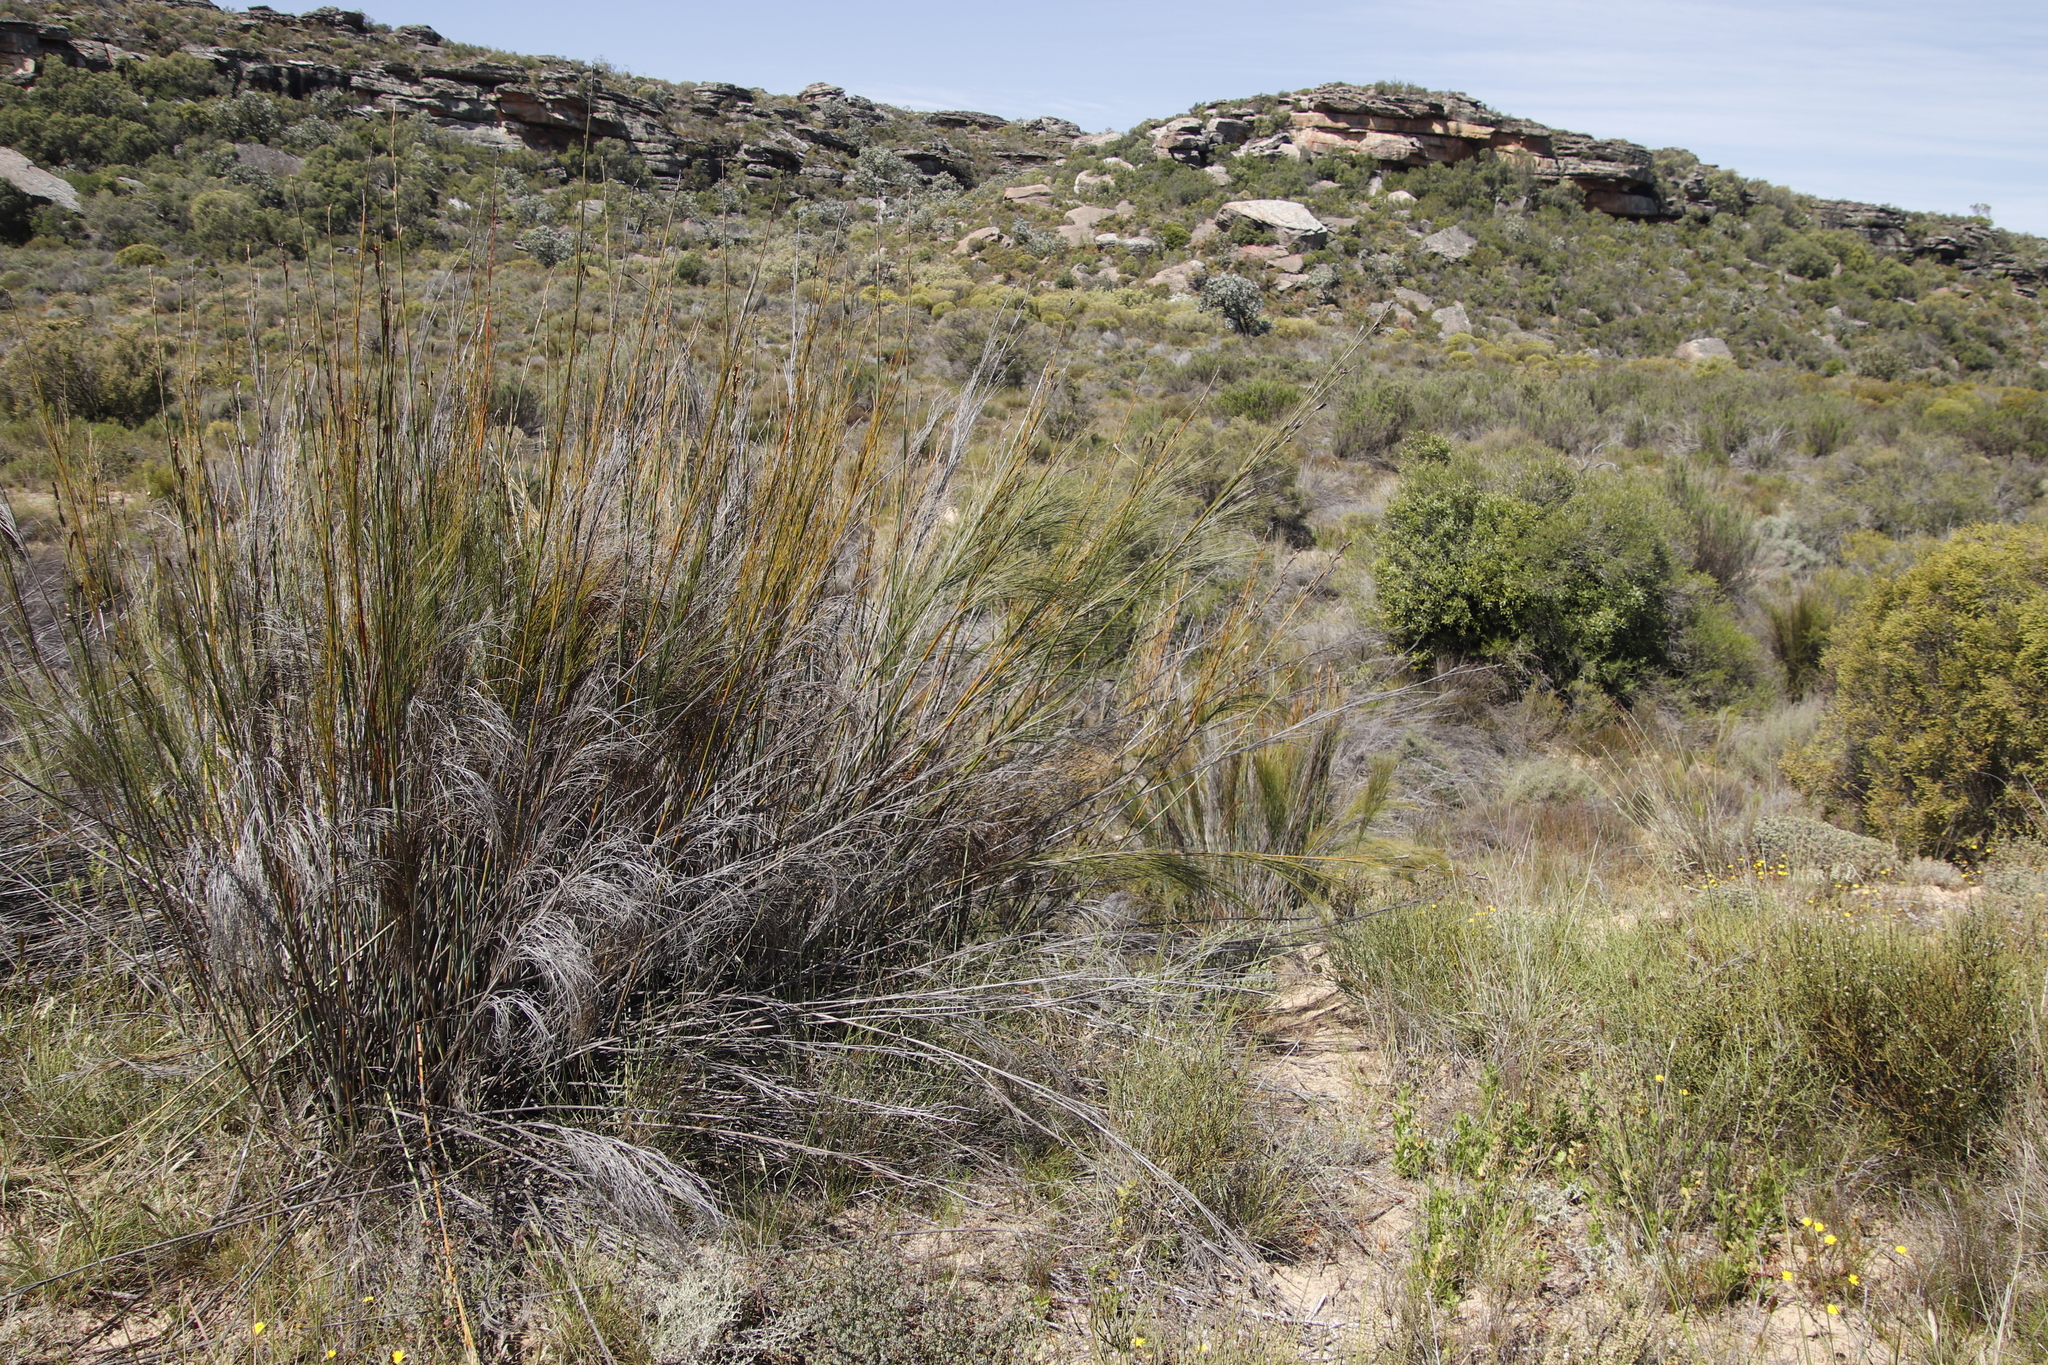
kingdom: Plantae
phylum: Tracheophyta
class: Liliopsida
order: Poales
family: Restionaceae
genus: Cannomois
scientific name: Cannomois robusta
